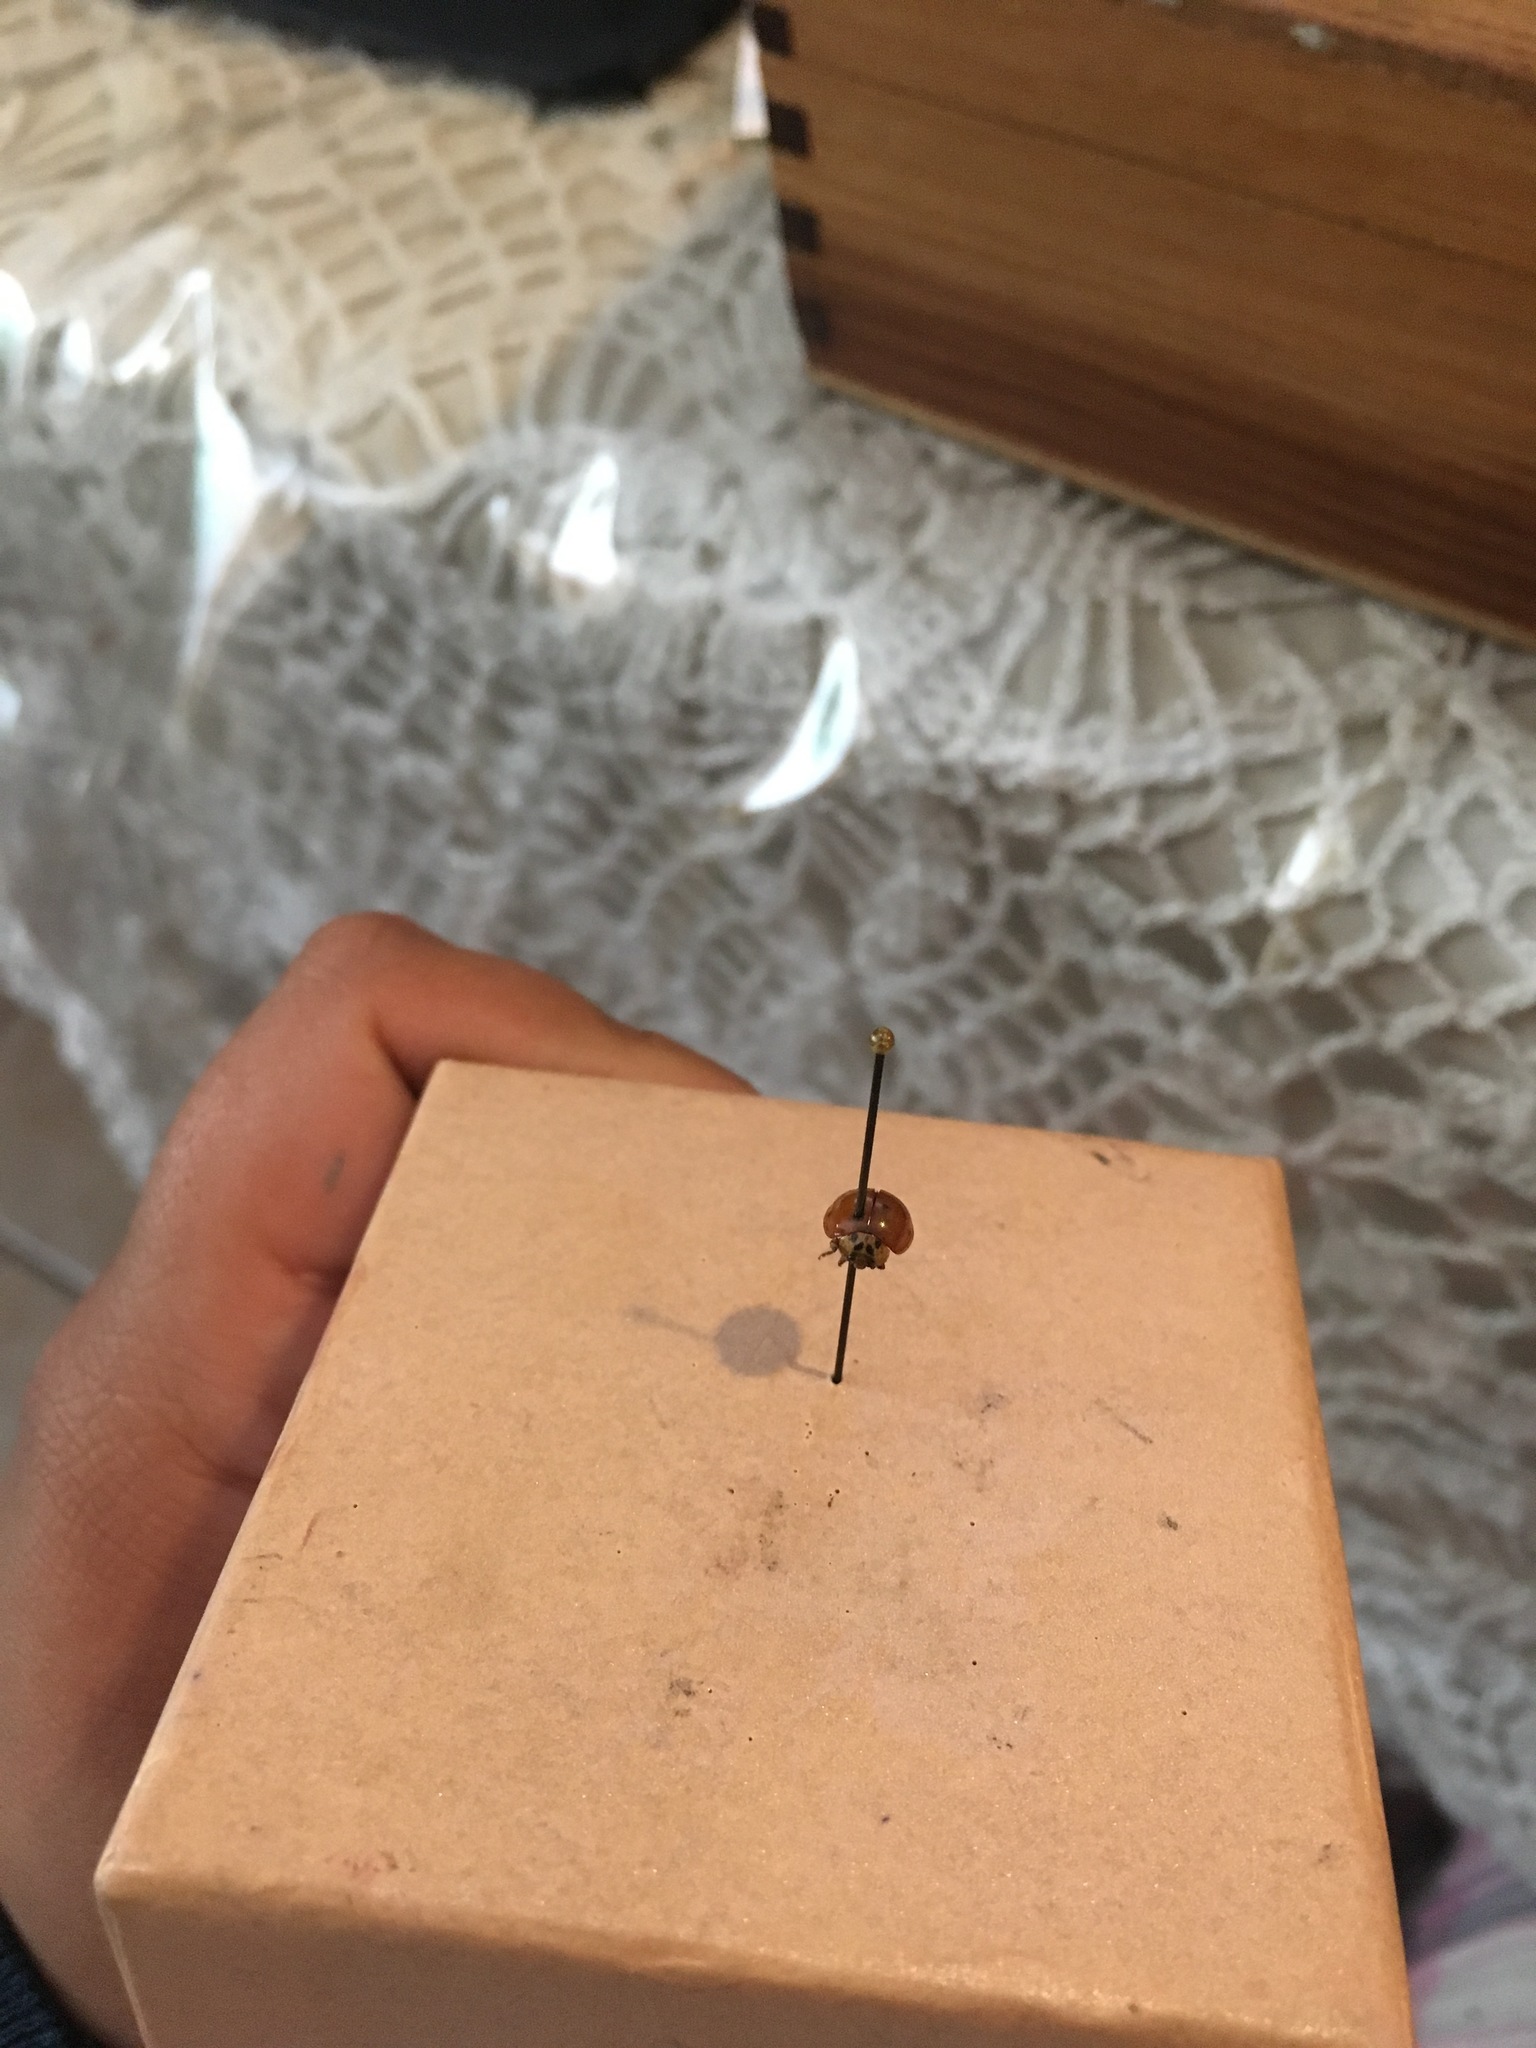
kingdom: Animalia
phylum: Arthropoda
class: Insecta
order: Coleoptera
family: Coccinellidae
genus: Harmonia
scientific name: Harmonia axyridis
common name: Harlequin ladybird
